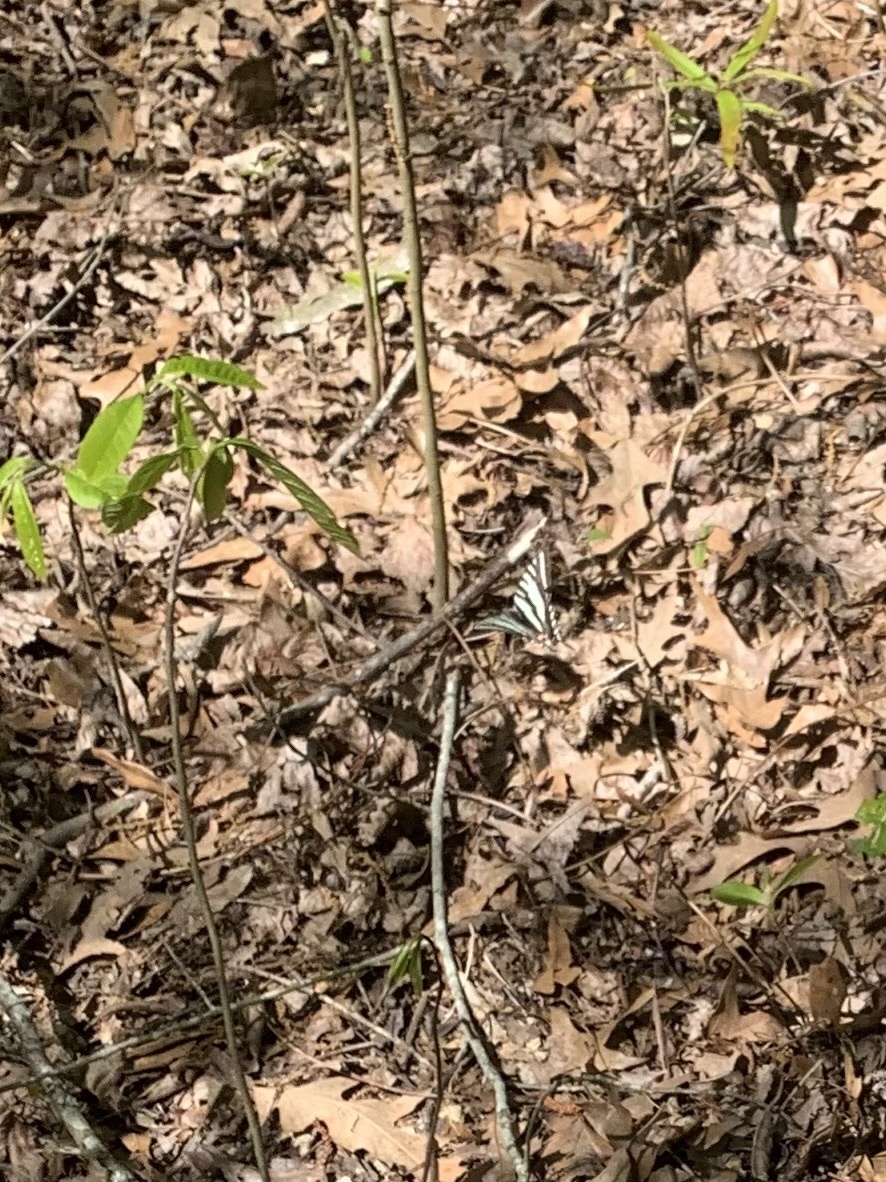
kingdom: Animalia
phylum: Arthropoda
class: Insecta
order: Lepidoptera
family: Papilionidae
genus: Protographium
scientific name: Protographium marcellus
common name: Zebra swallowtail
